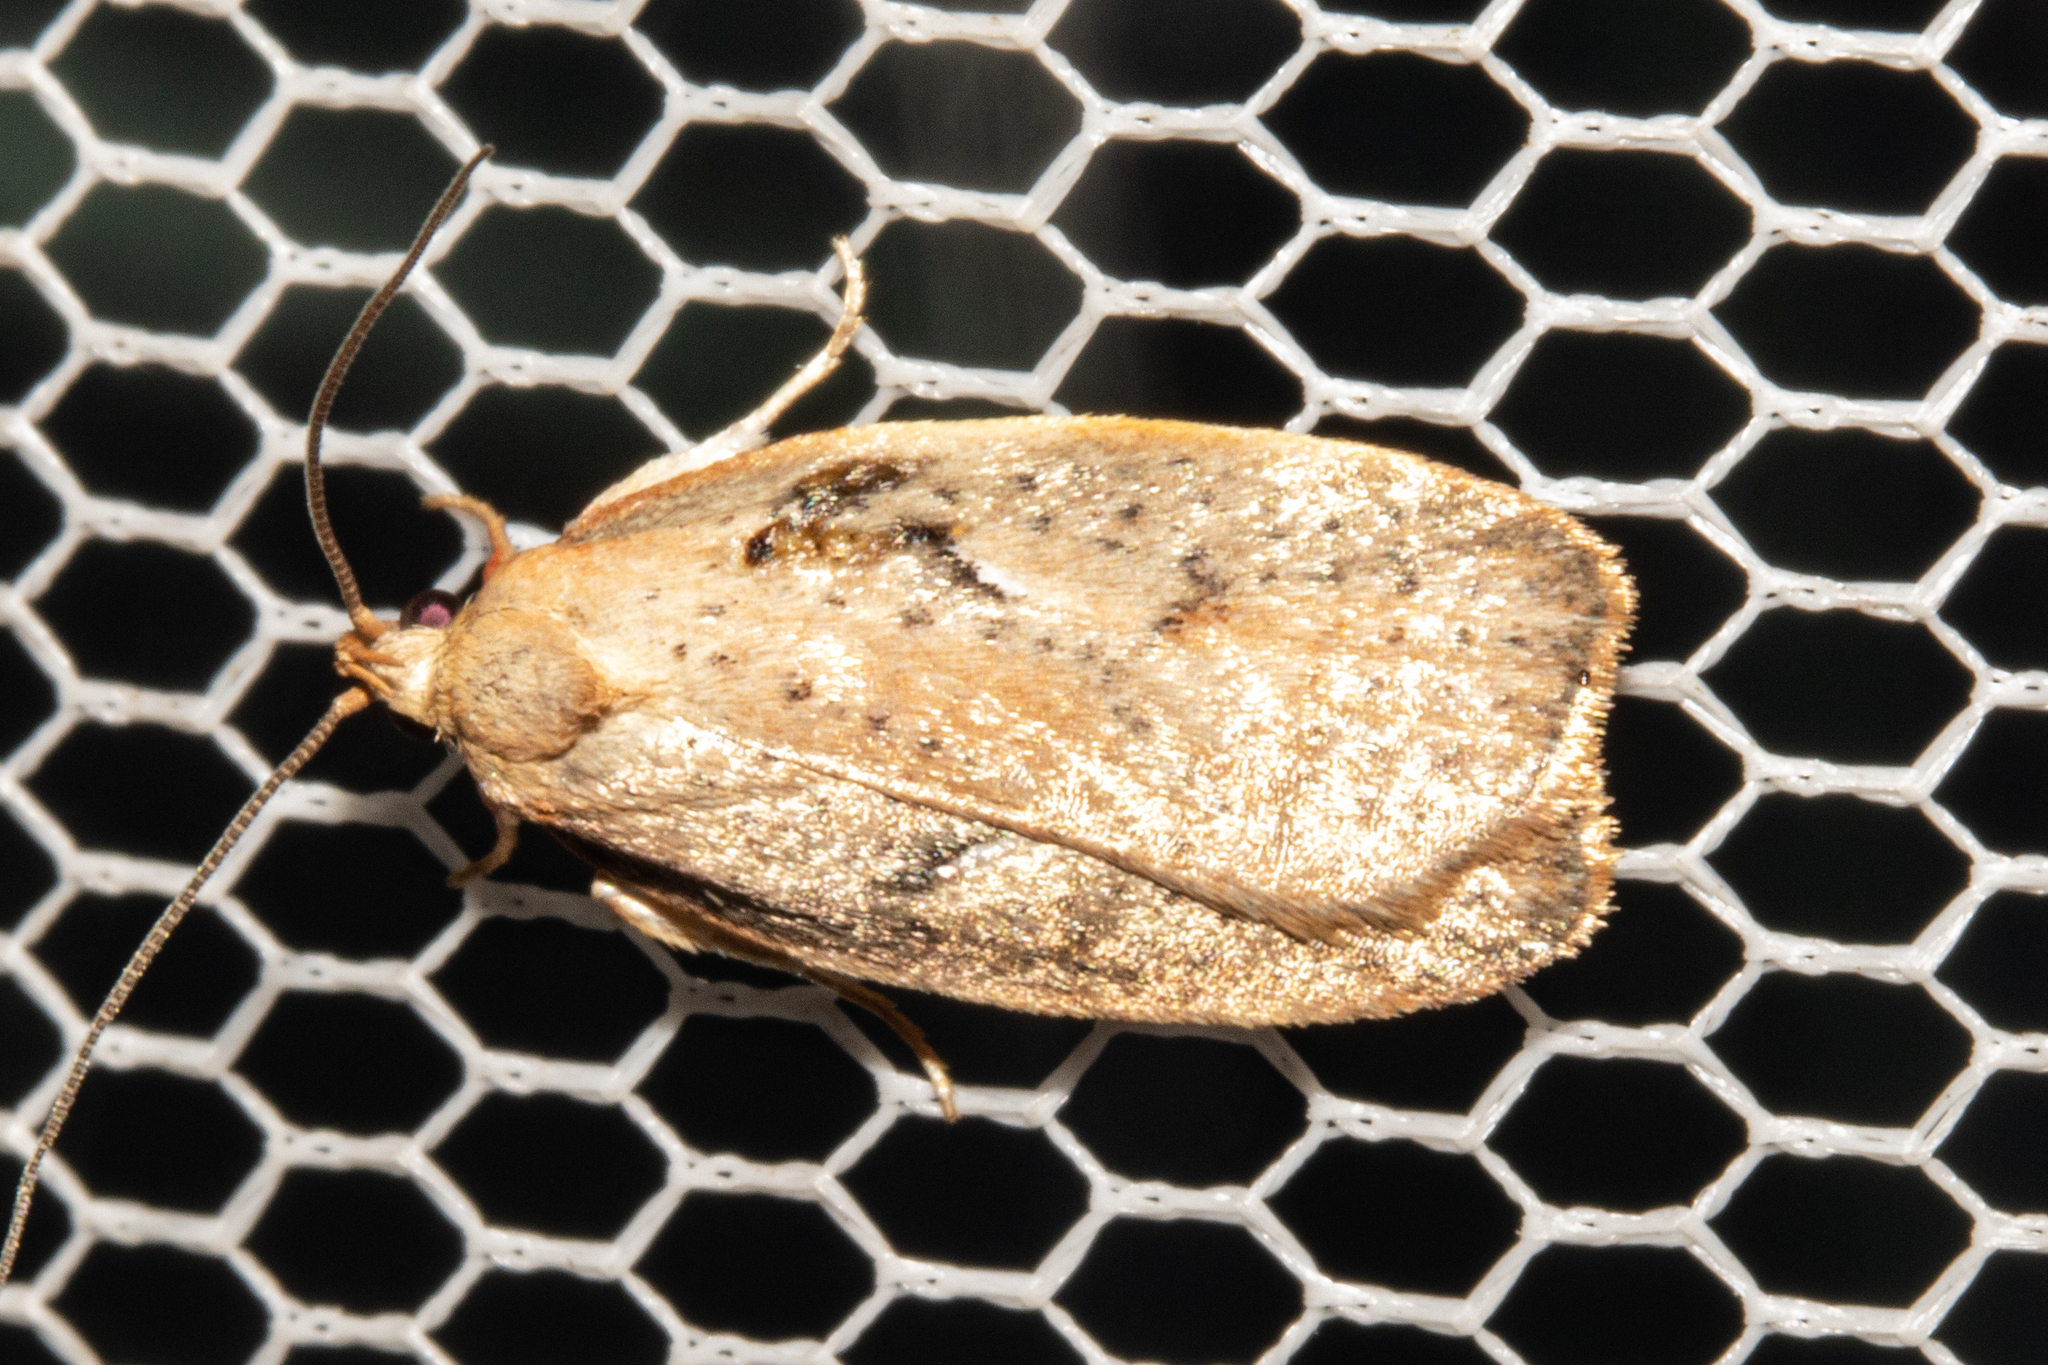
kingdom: Animalia
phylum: Arthropoda
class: Insecta
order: Lepidoptera
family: Oecophoridae
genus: Proteodes
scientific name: Proteodes carnifex
